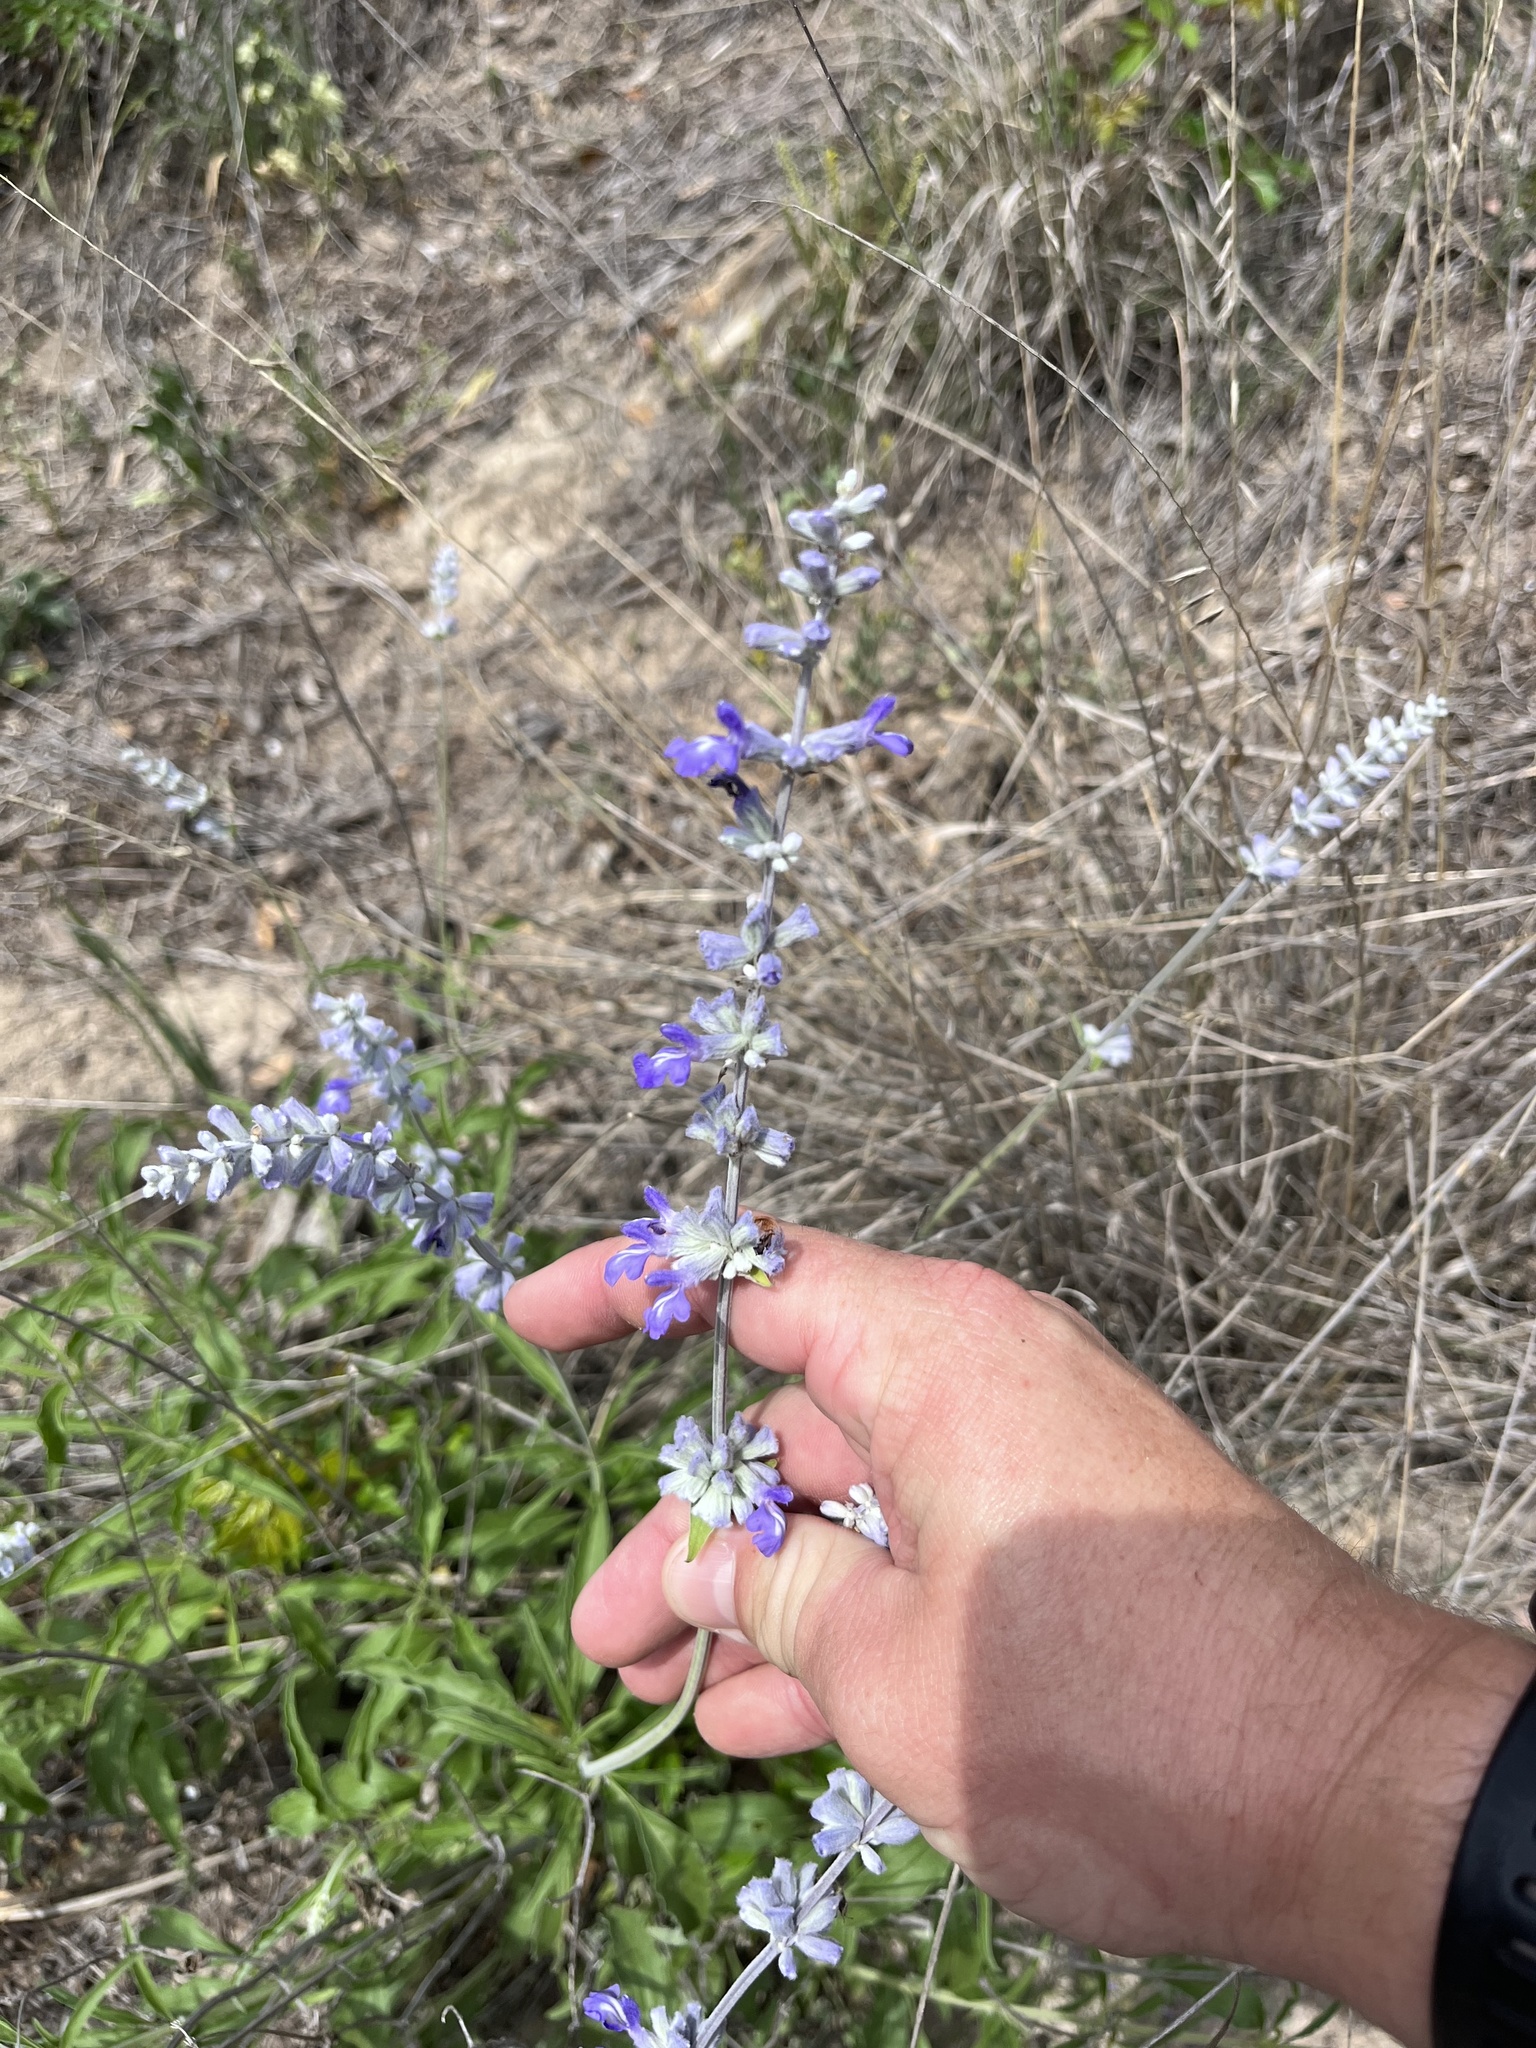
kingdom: Plantae
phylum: Tracheophyta
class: Magnoliopsida
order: Lamiales
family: Lamiaceae
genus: Salvia
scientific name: Salvia farinacea
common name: Mealy sage
